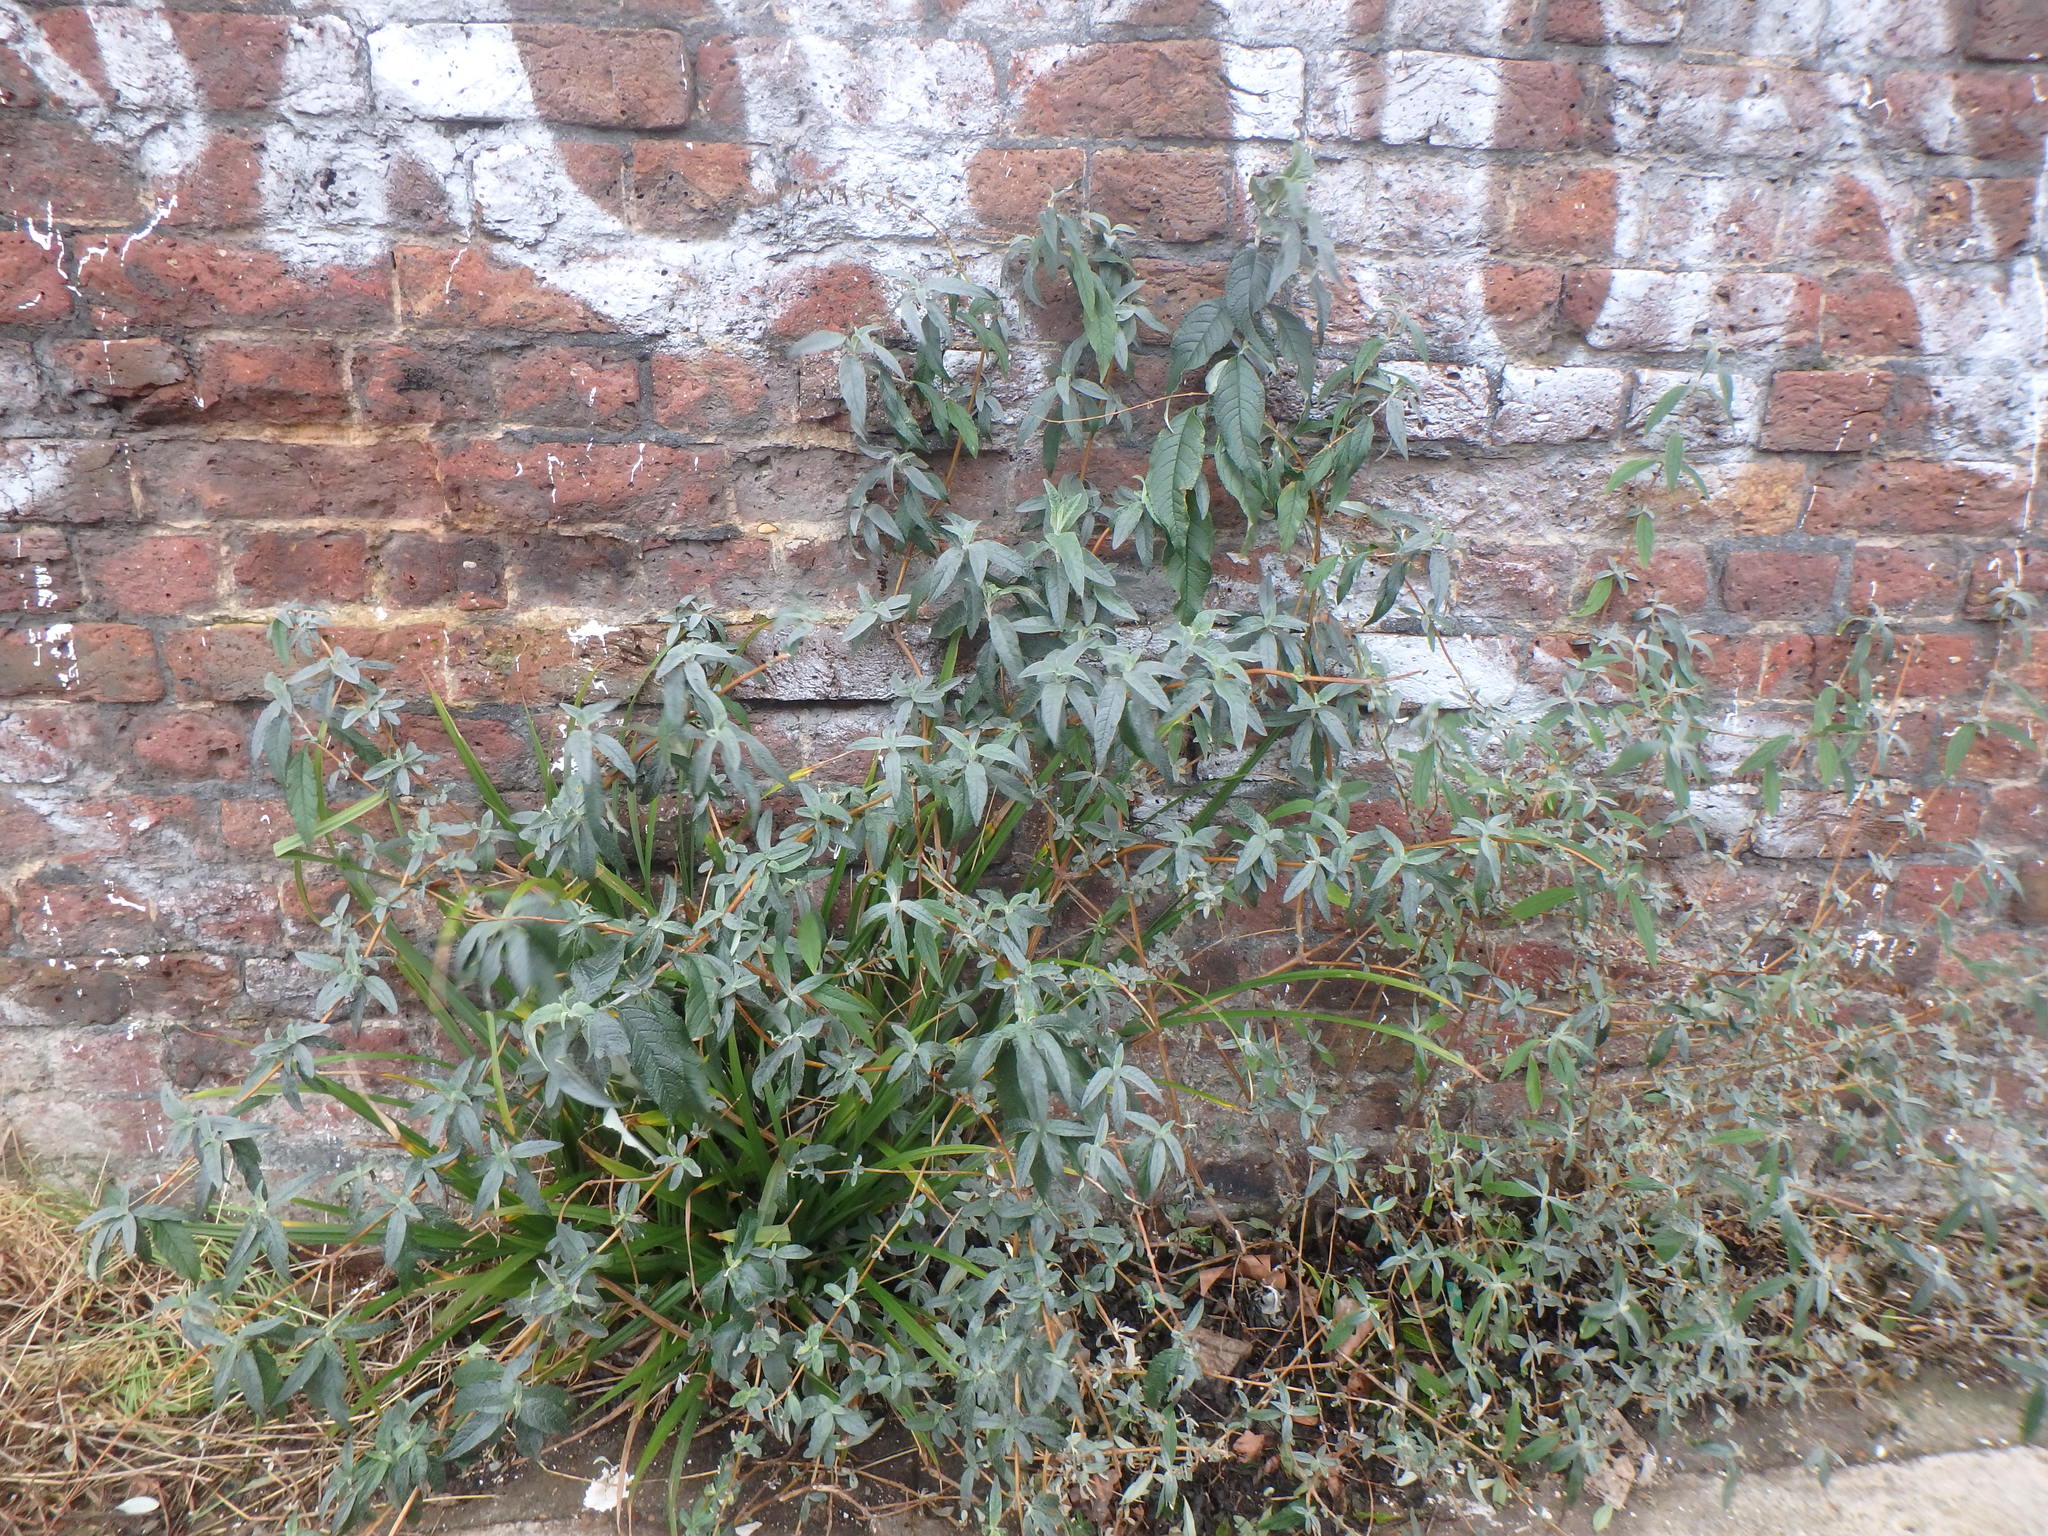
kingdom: Plantae
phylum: Tracheophyta
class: Magnoliopsida
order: Lamiales
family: Scrophulariaceae
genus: Buddleja
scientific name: Buddleja davidii
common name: Butterfly-bush
